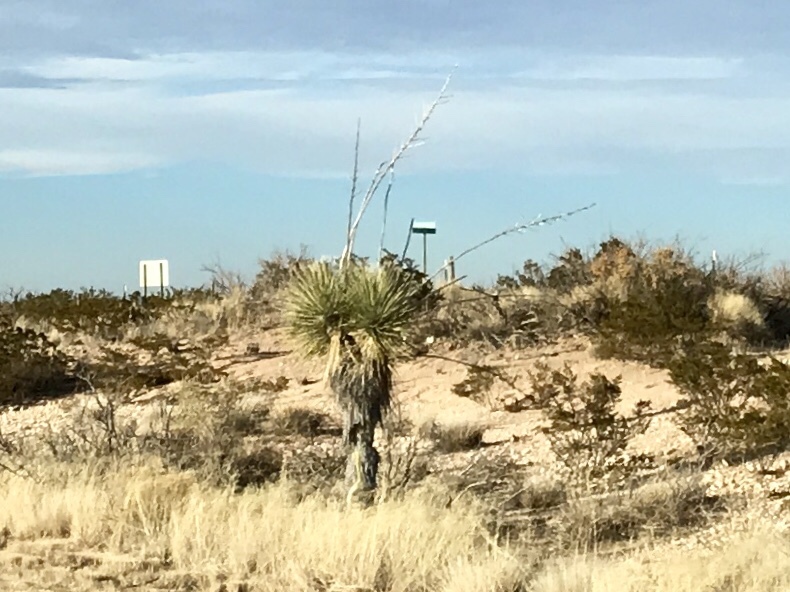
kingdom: Plantae
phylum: Tracheophyta
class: Liliopsida
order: Asparagales
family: Asparagaceae
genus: Yucca
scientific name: Yucca elata
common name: Palmella
